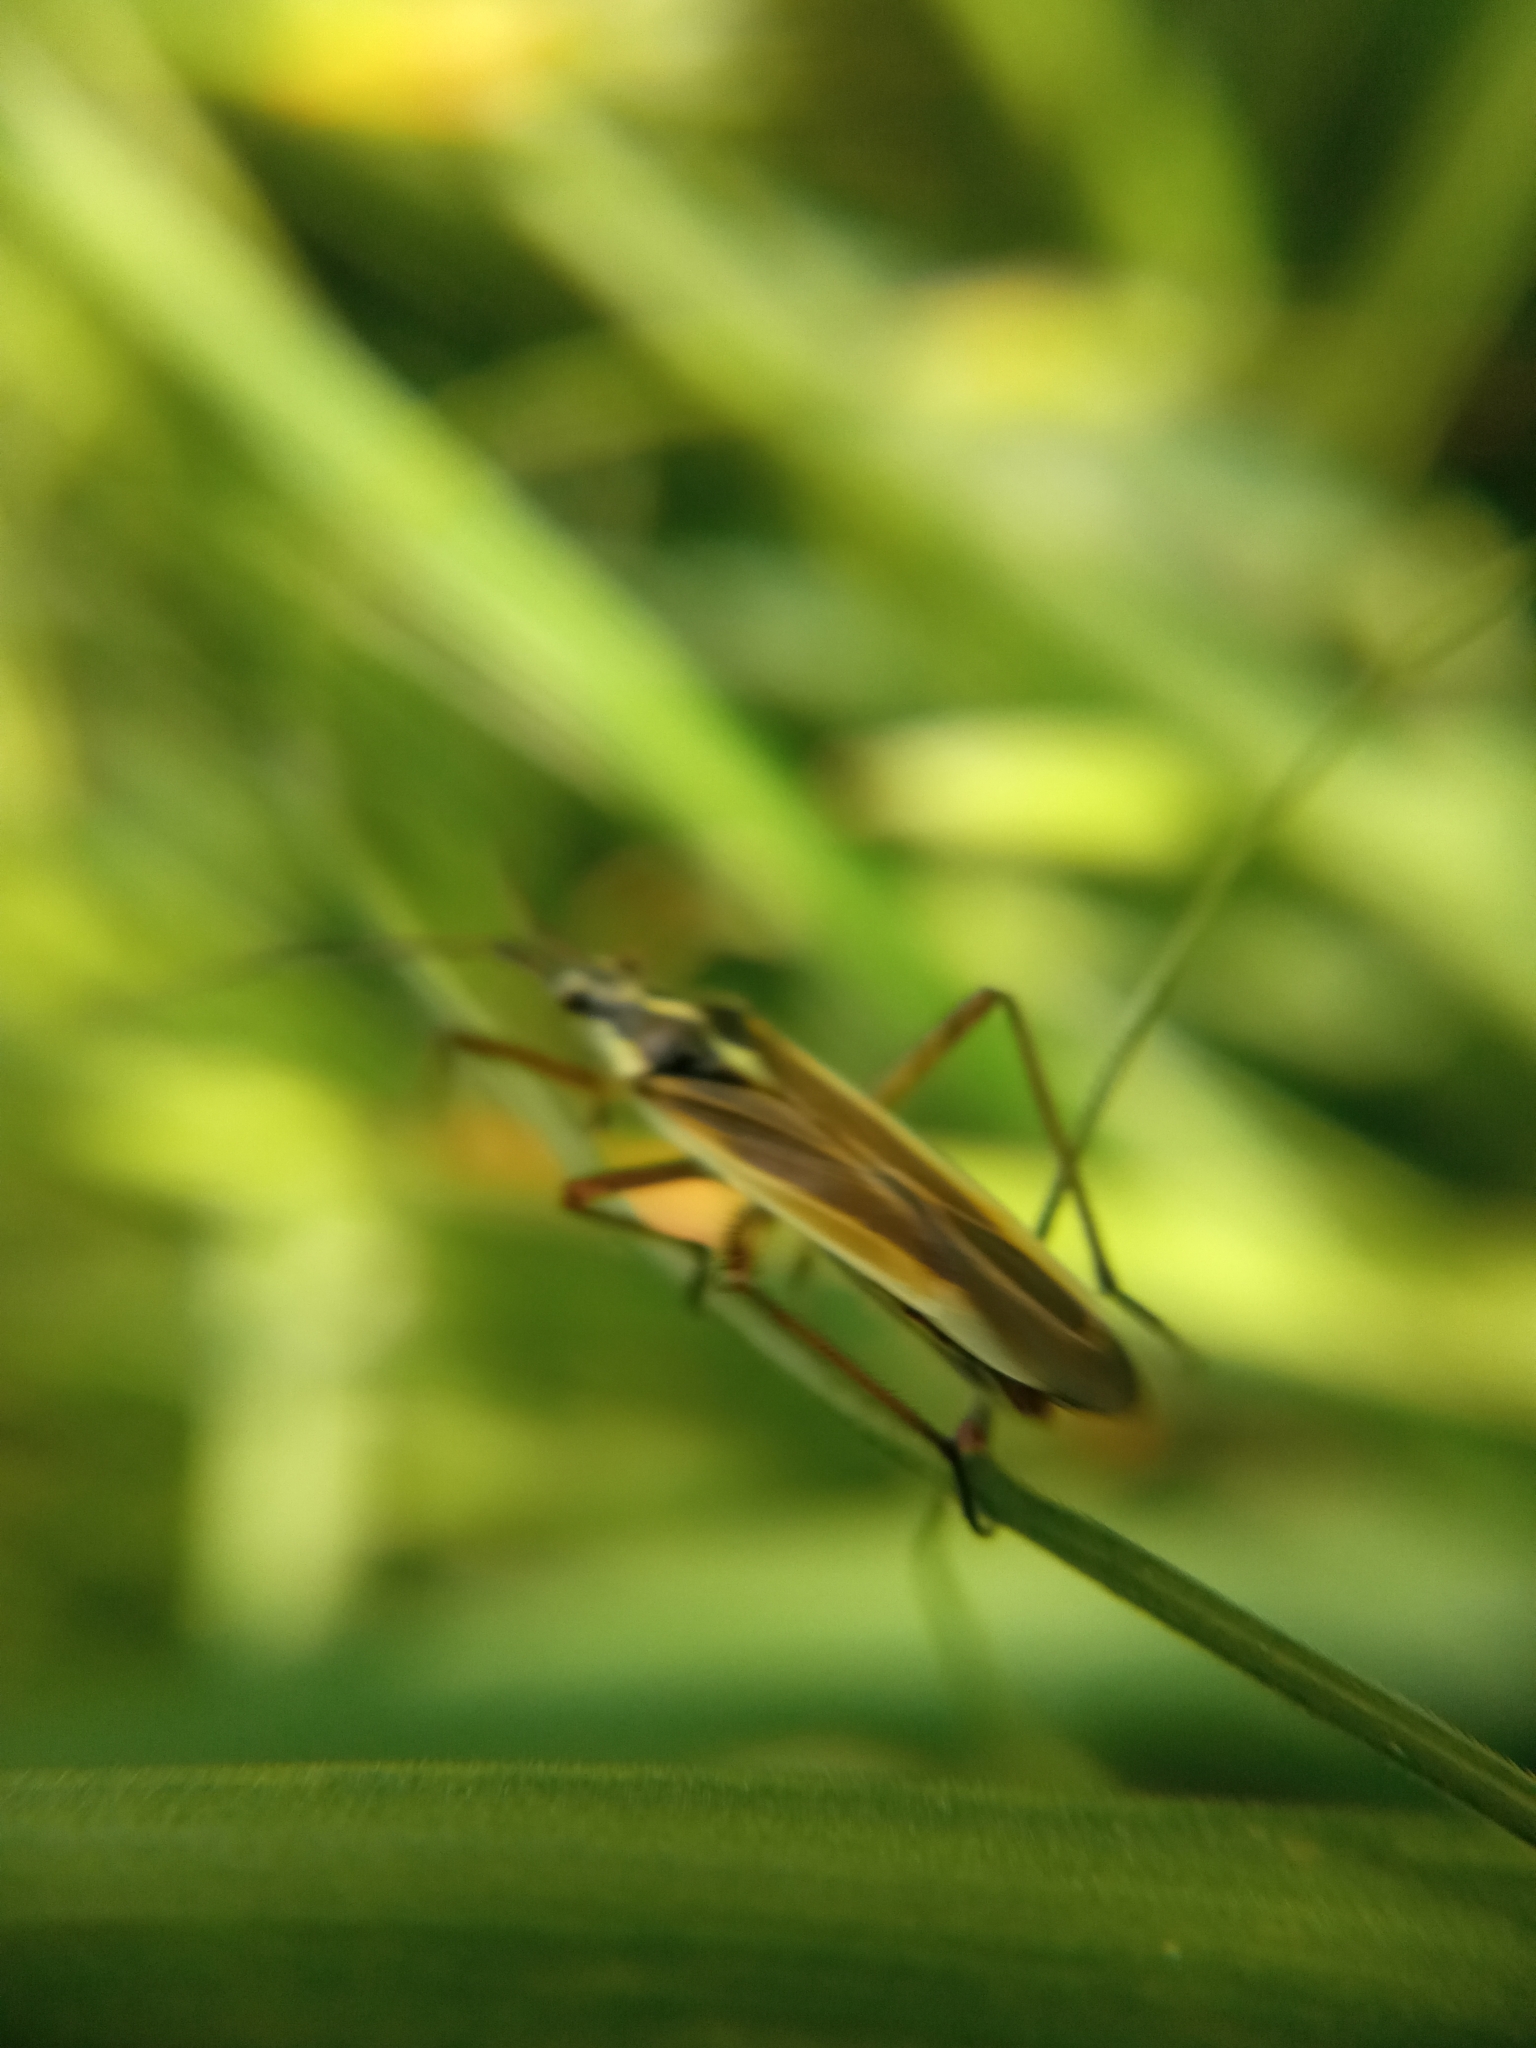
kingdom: Animalia
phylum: Arthropoda
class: Insecta
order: Hemiptera
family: Miridae
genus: Leptopterna
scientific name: Leptopterna dolabrata
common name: Meadow plant bug
